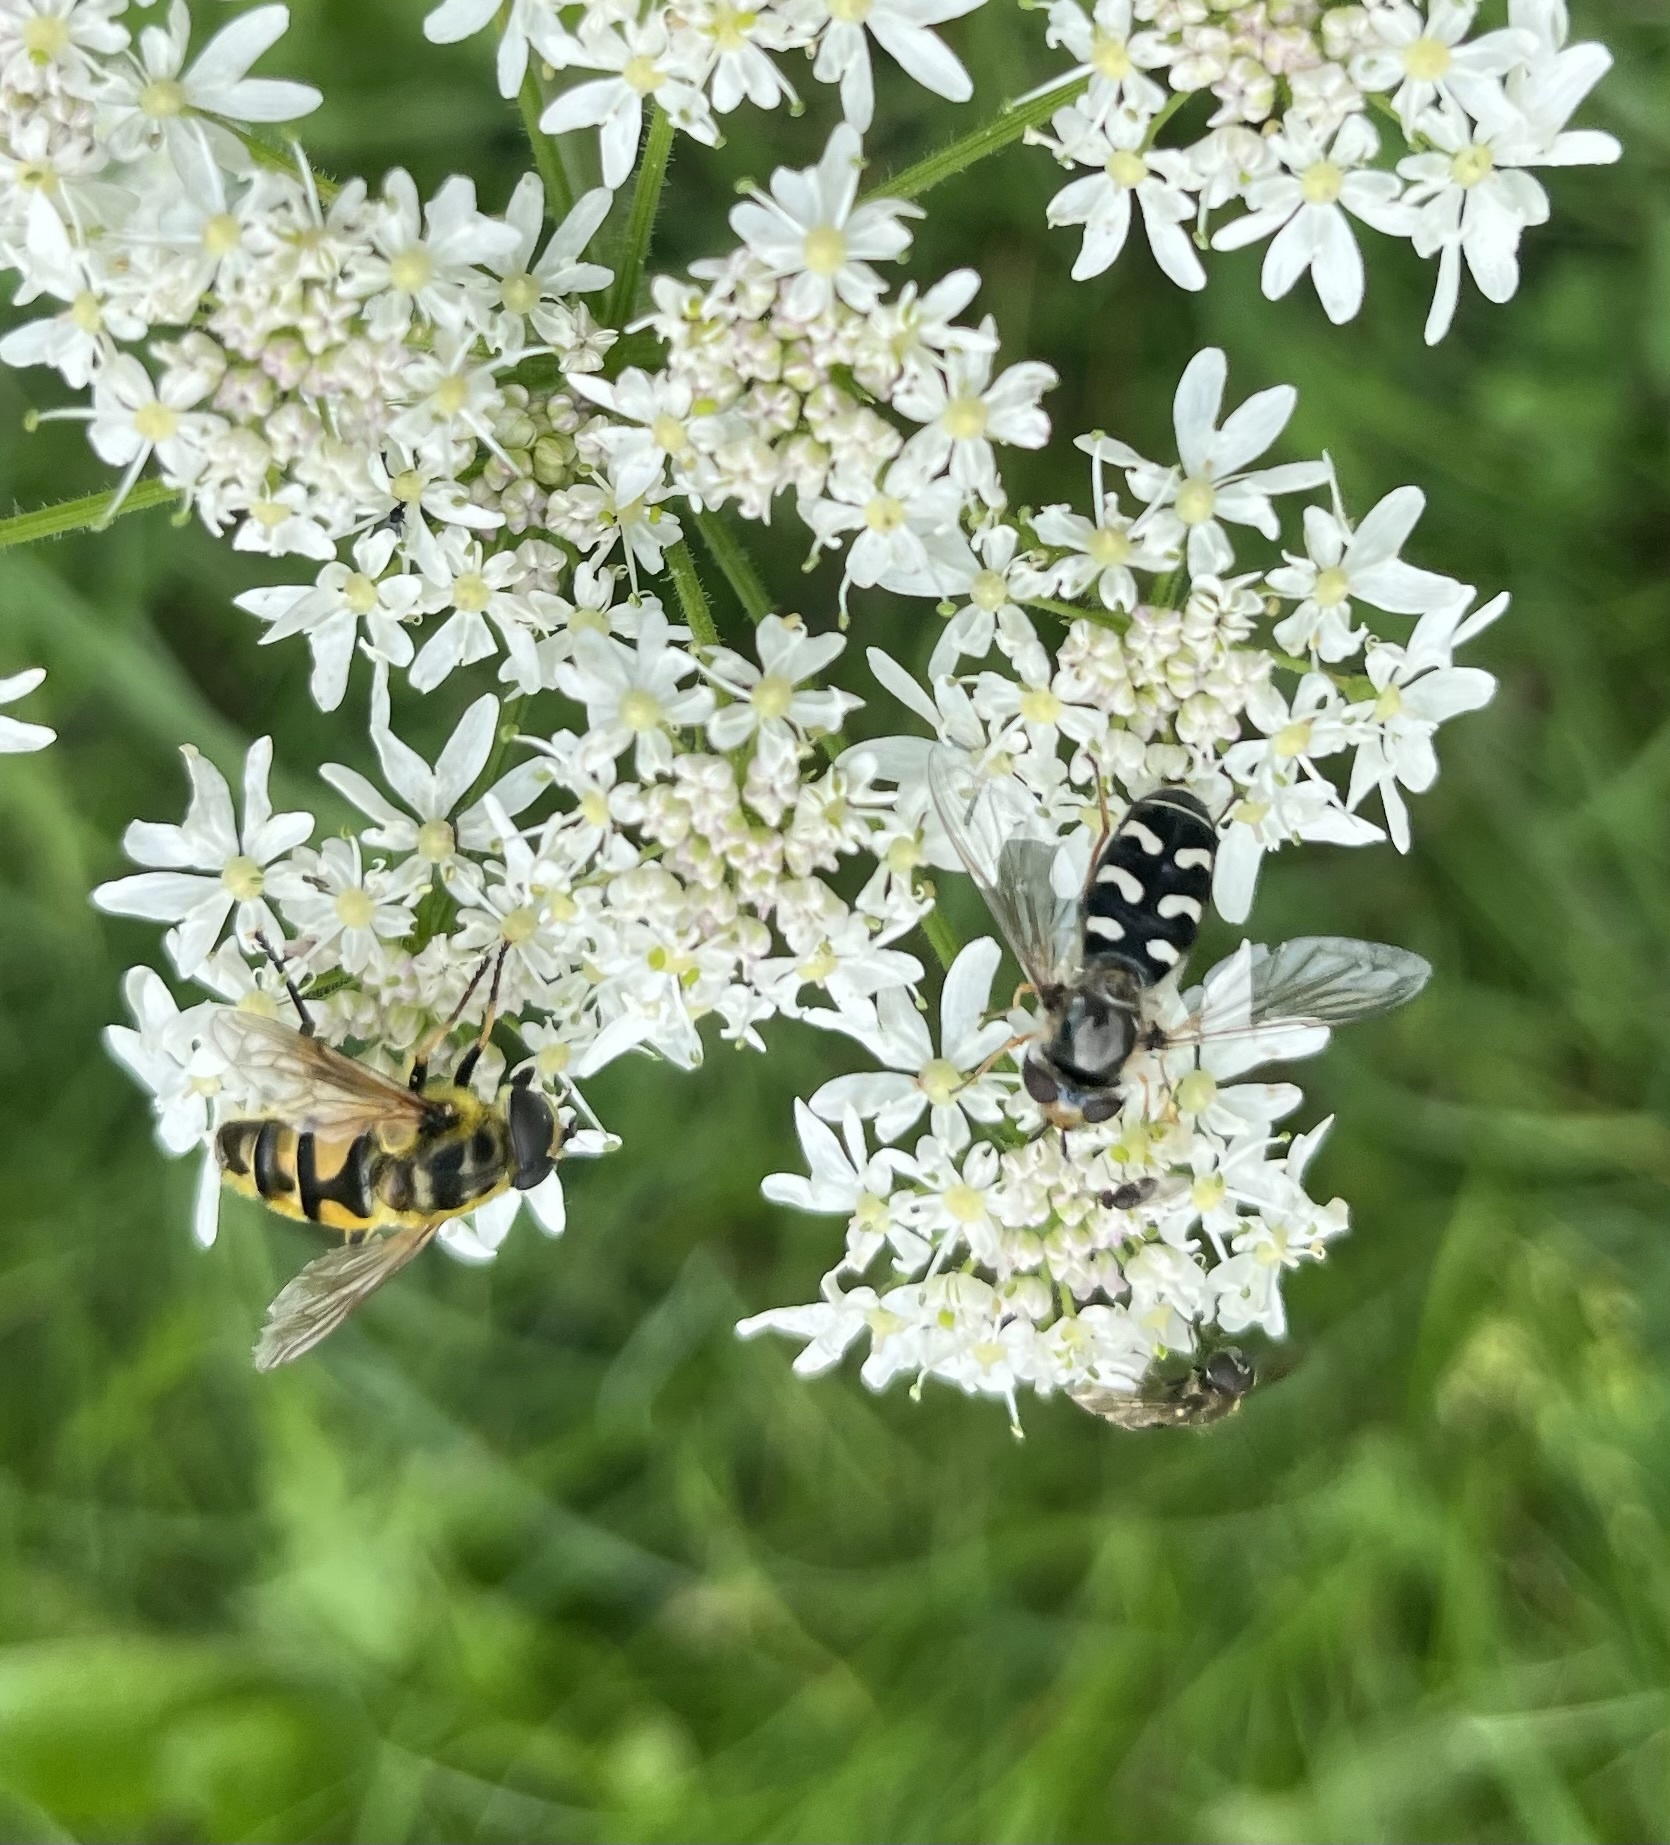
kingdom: Animalia
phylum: Arthropoda
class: Insecta
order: Diptera
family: Syrphidae
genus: Myathropa
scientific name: Myathropa florea
